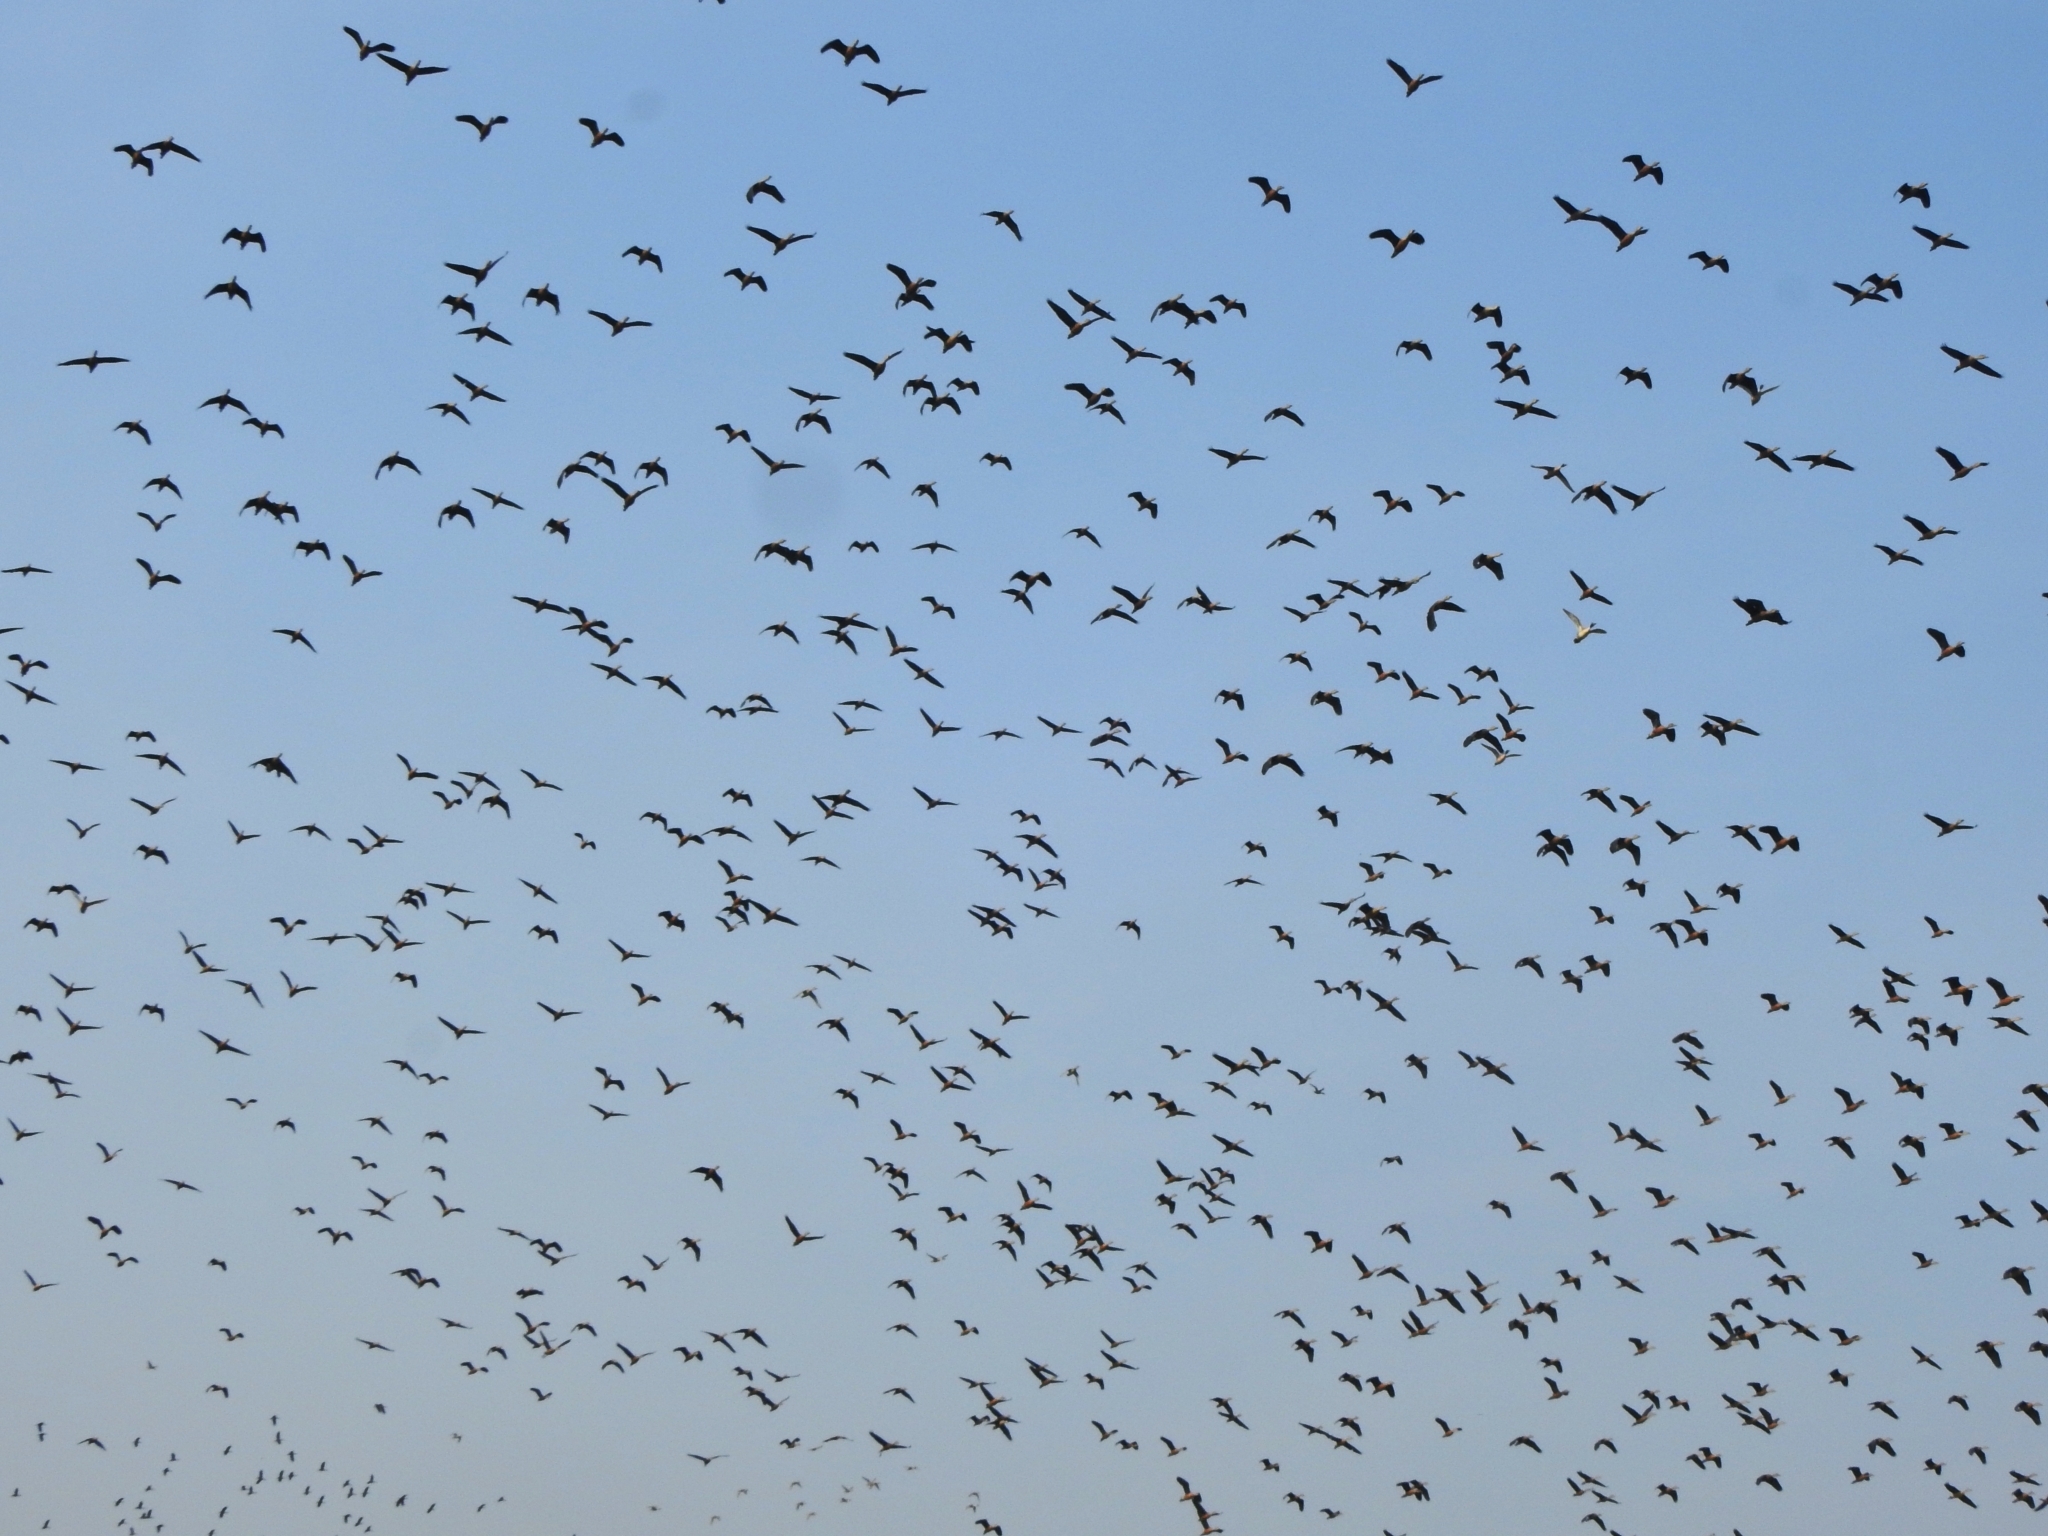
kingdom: Animalia
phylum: Chordata
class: Aves
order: Anseriformes
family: Anatidae
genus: Dendrocygna
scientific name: Dendrocygna javanica
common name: Lesser whistling-duck
